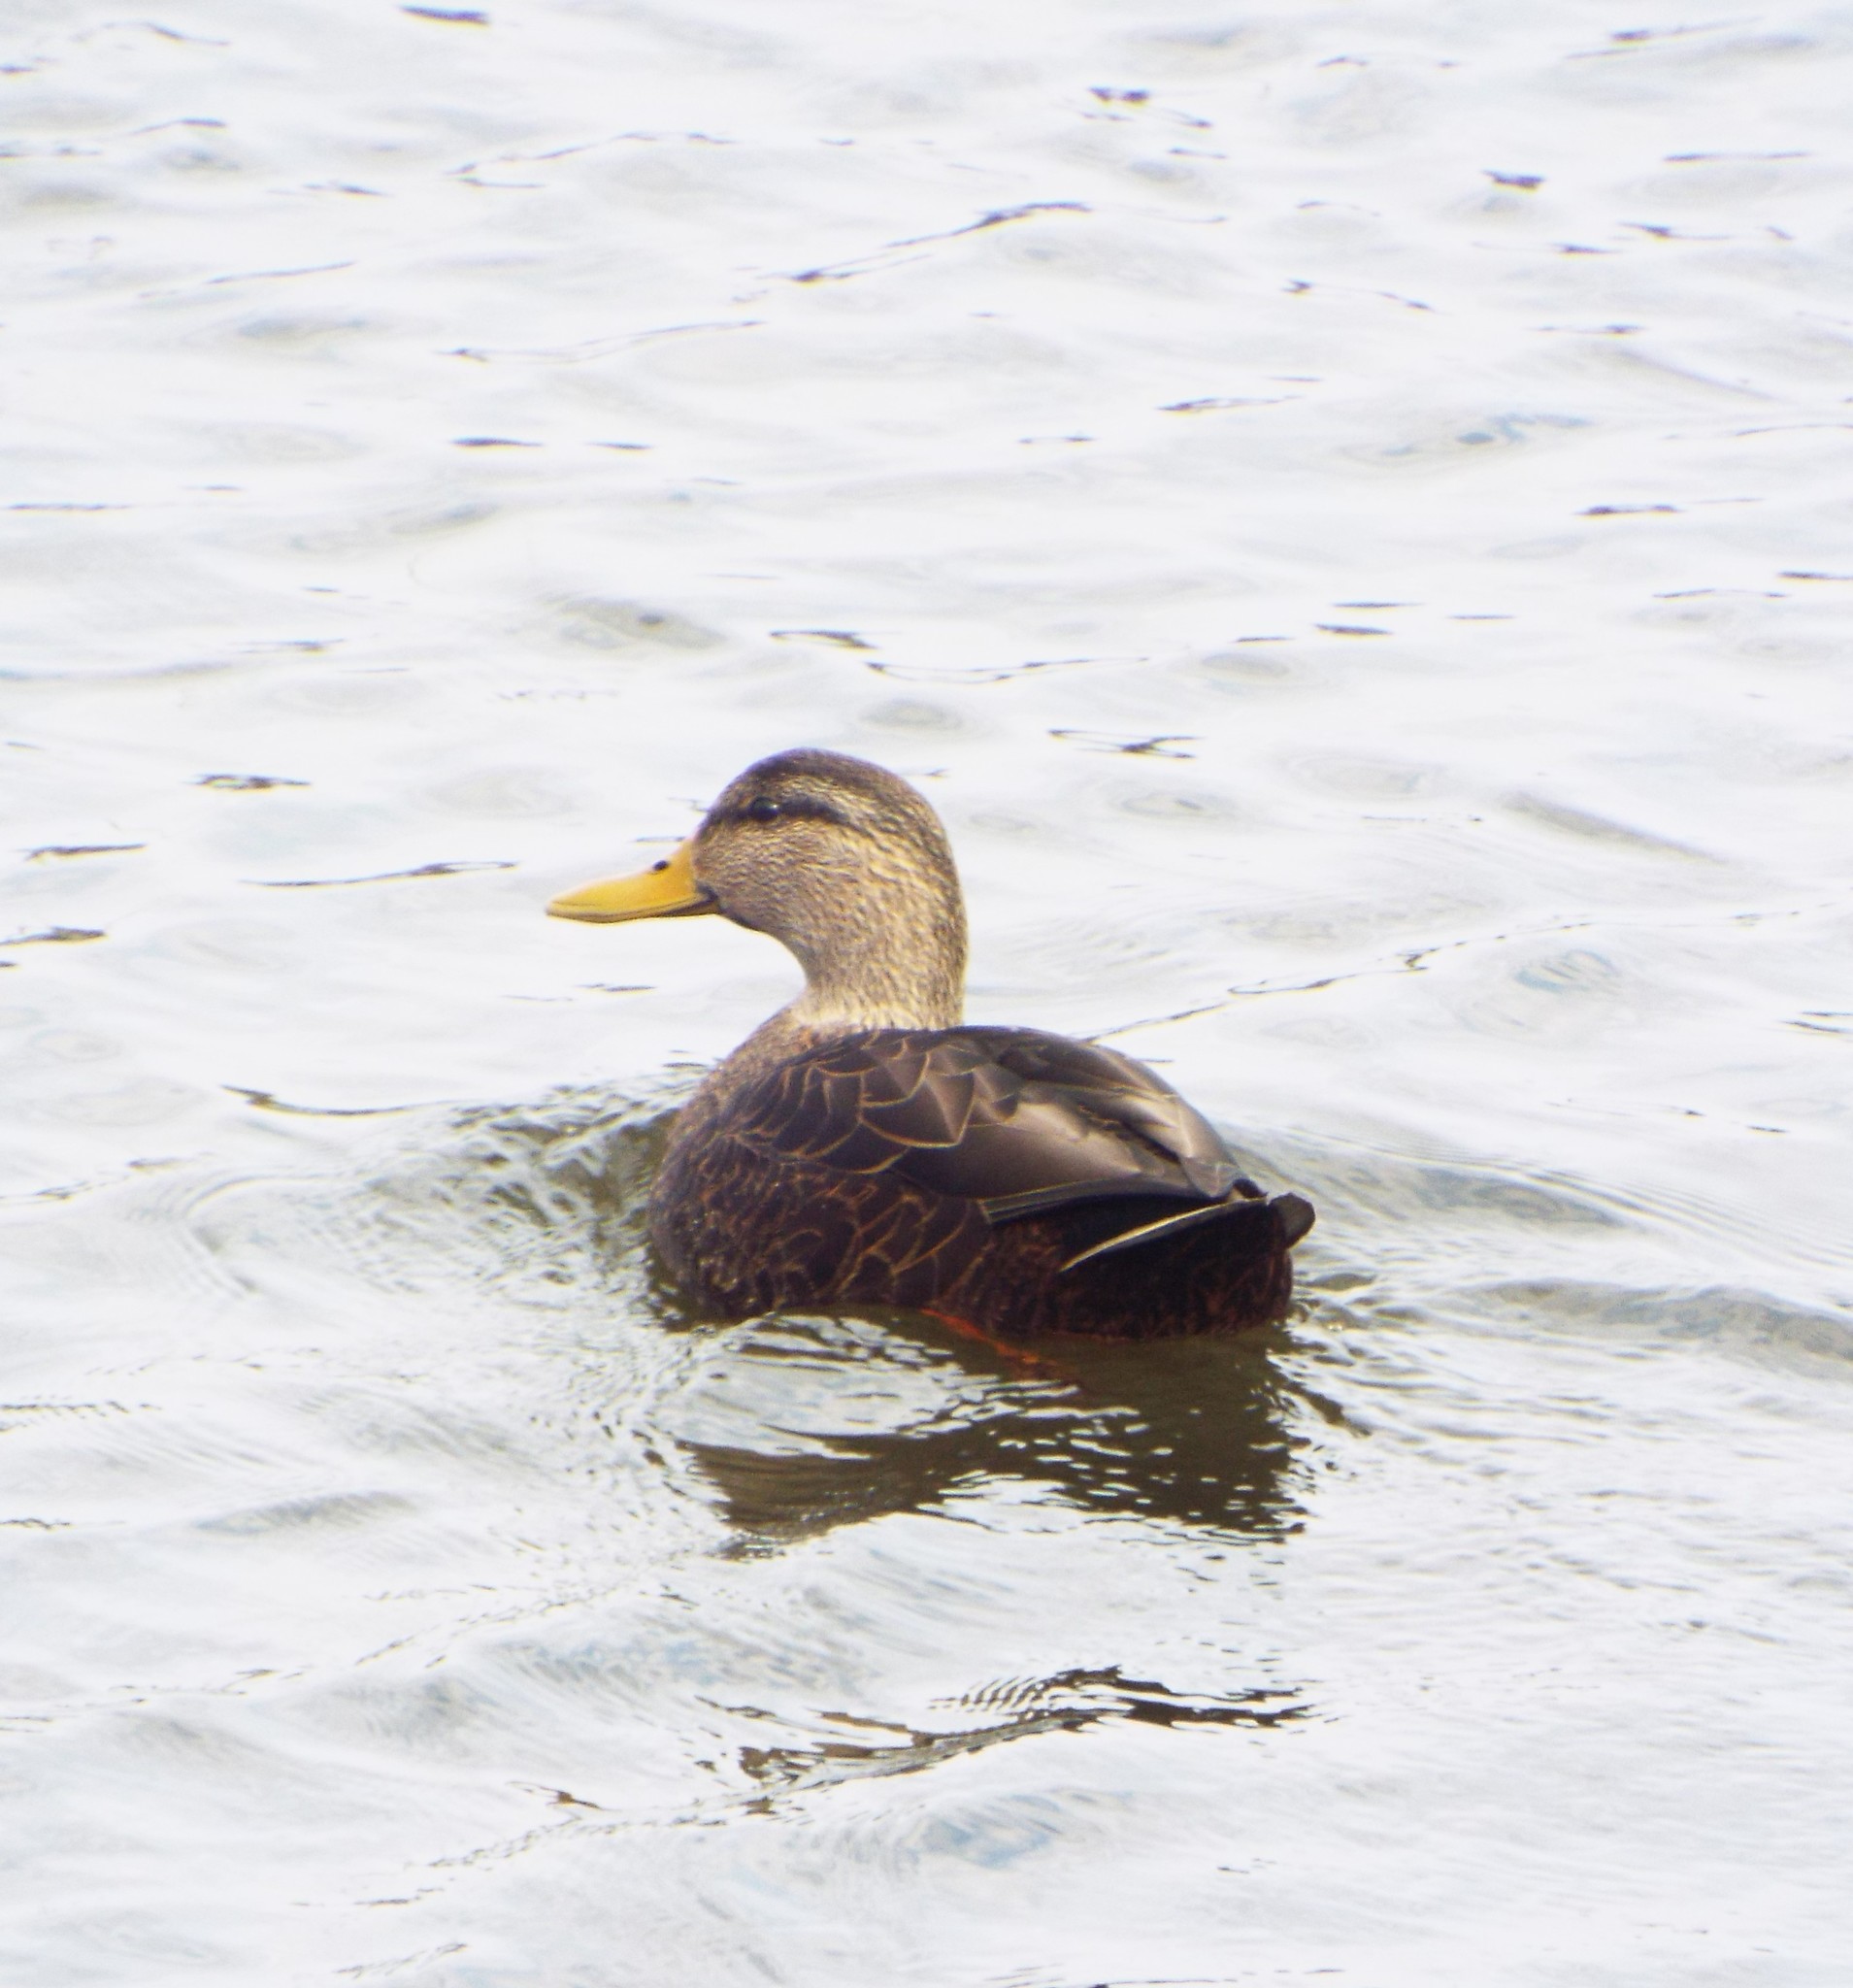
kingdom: Animalia
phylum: Chordata
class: Aves
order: Anseriformes
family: Anatidae
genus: Anas
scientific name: Anas rubripes
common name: American black duck
